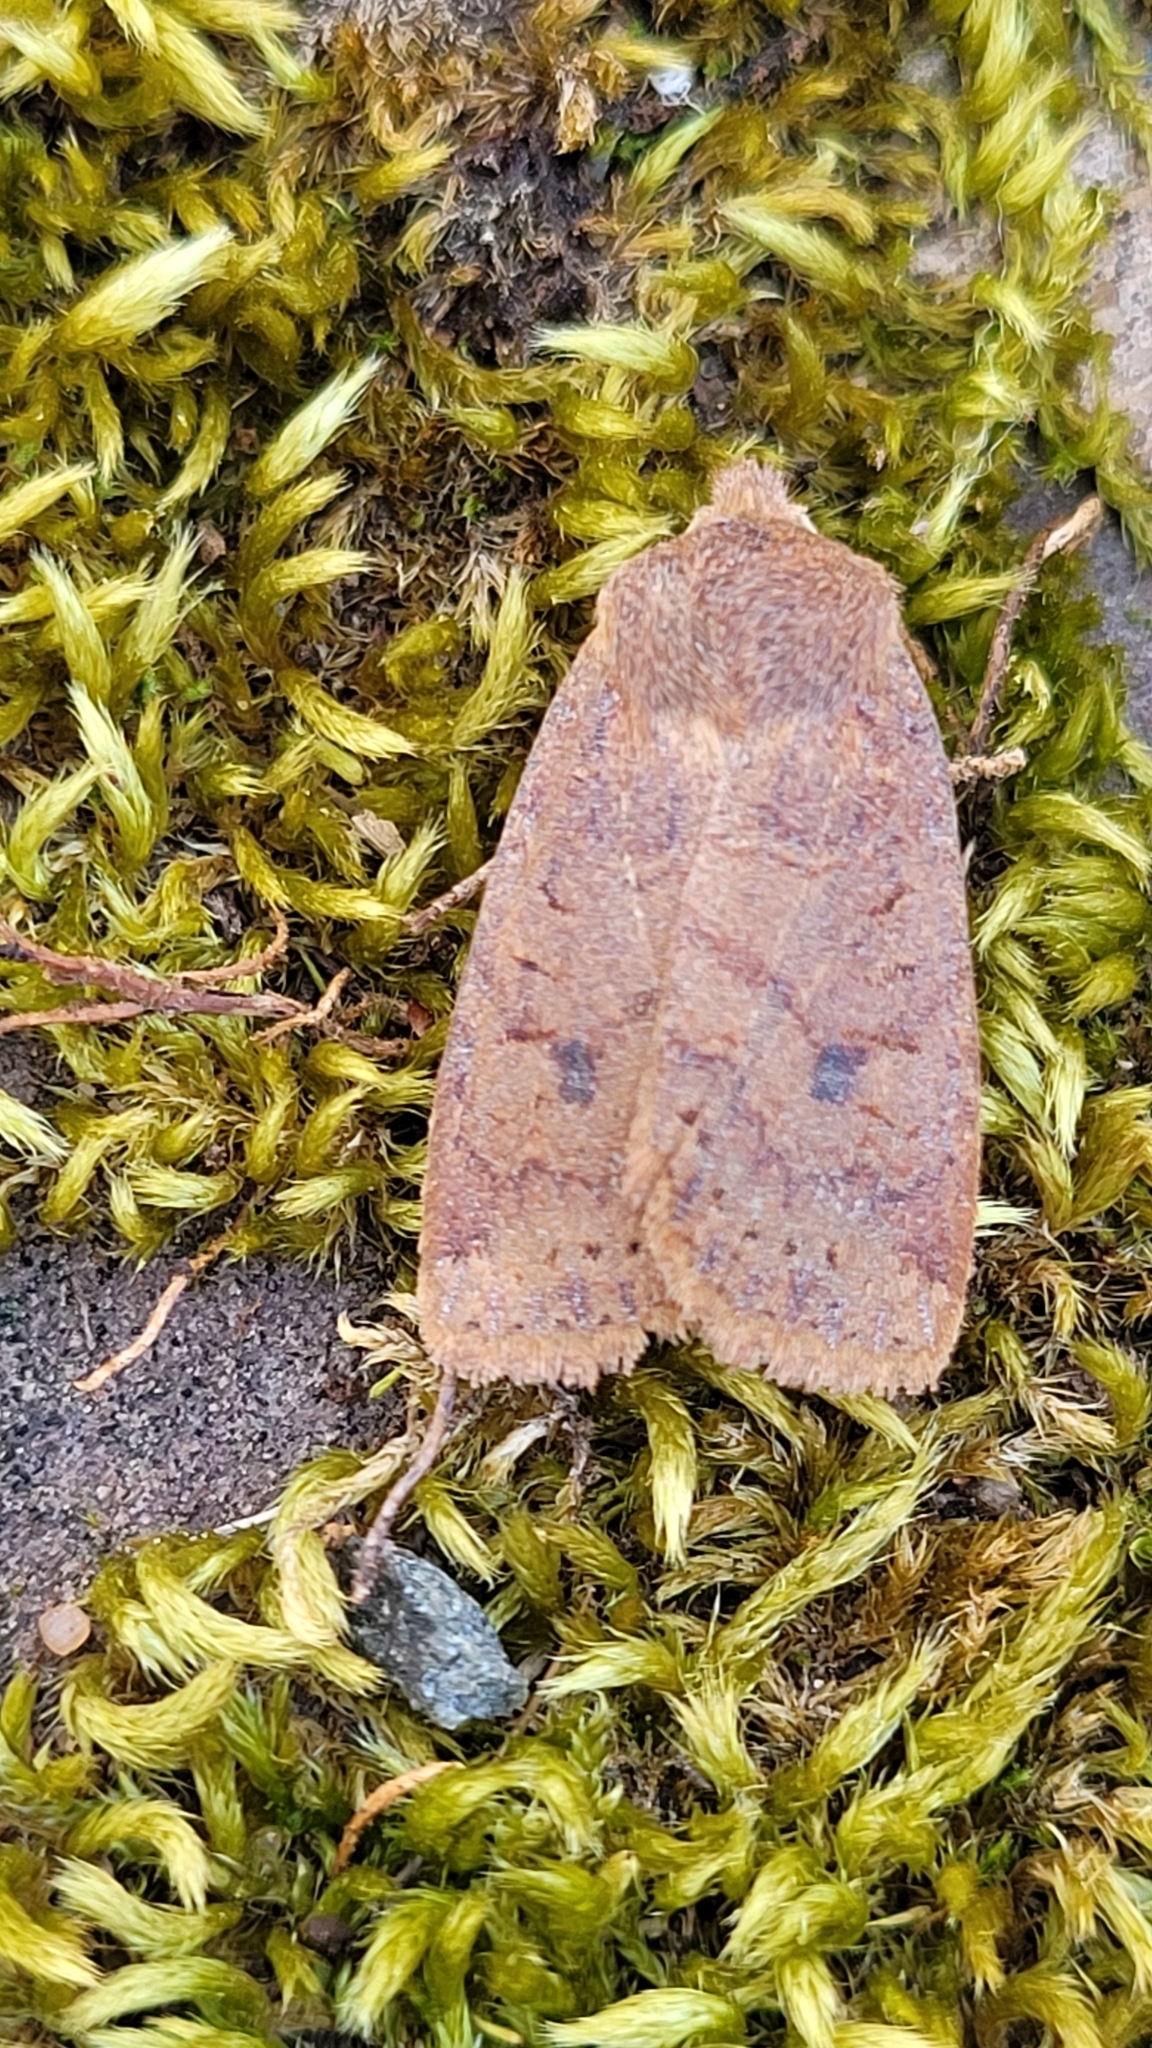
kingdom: Animalia
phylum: Arthropoda
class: Insecta
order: Lepidoptera
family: Noctuidae
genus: Conistra
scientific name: Conistra vaccinii
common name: Chestnut
